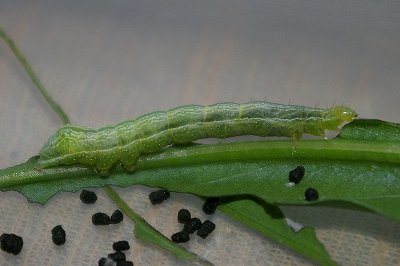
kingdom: Animalia
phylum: Arthropoda
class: Insecta
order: Lepidoptera
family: Noctuidae
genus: Ctenoplusia
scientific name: Ctenoplusia albostriata
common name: Moth
